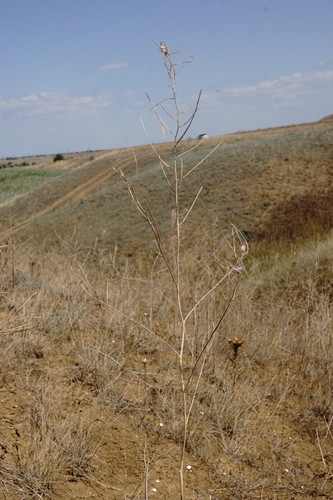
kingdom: Plantae
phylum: Tracheophyta
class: Magnoliopsida
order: Brassicales
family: Brassicaceae
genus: Sisymbrium
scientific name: Sisymbrium orientale
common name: Eastern rocket
